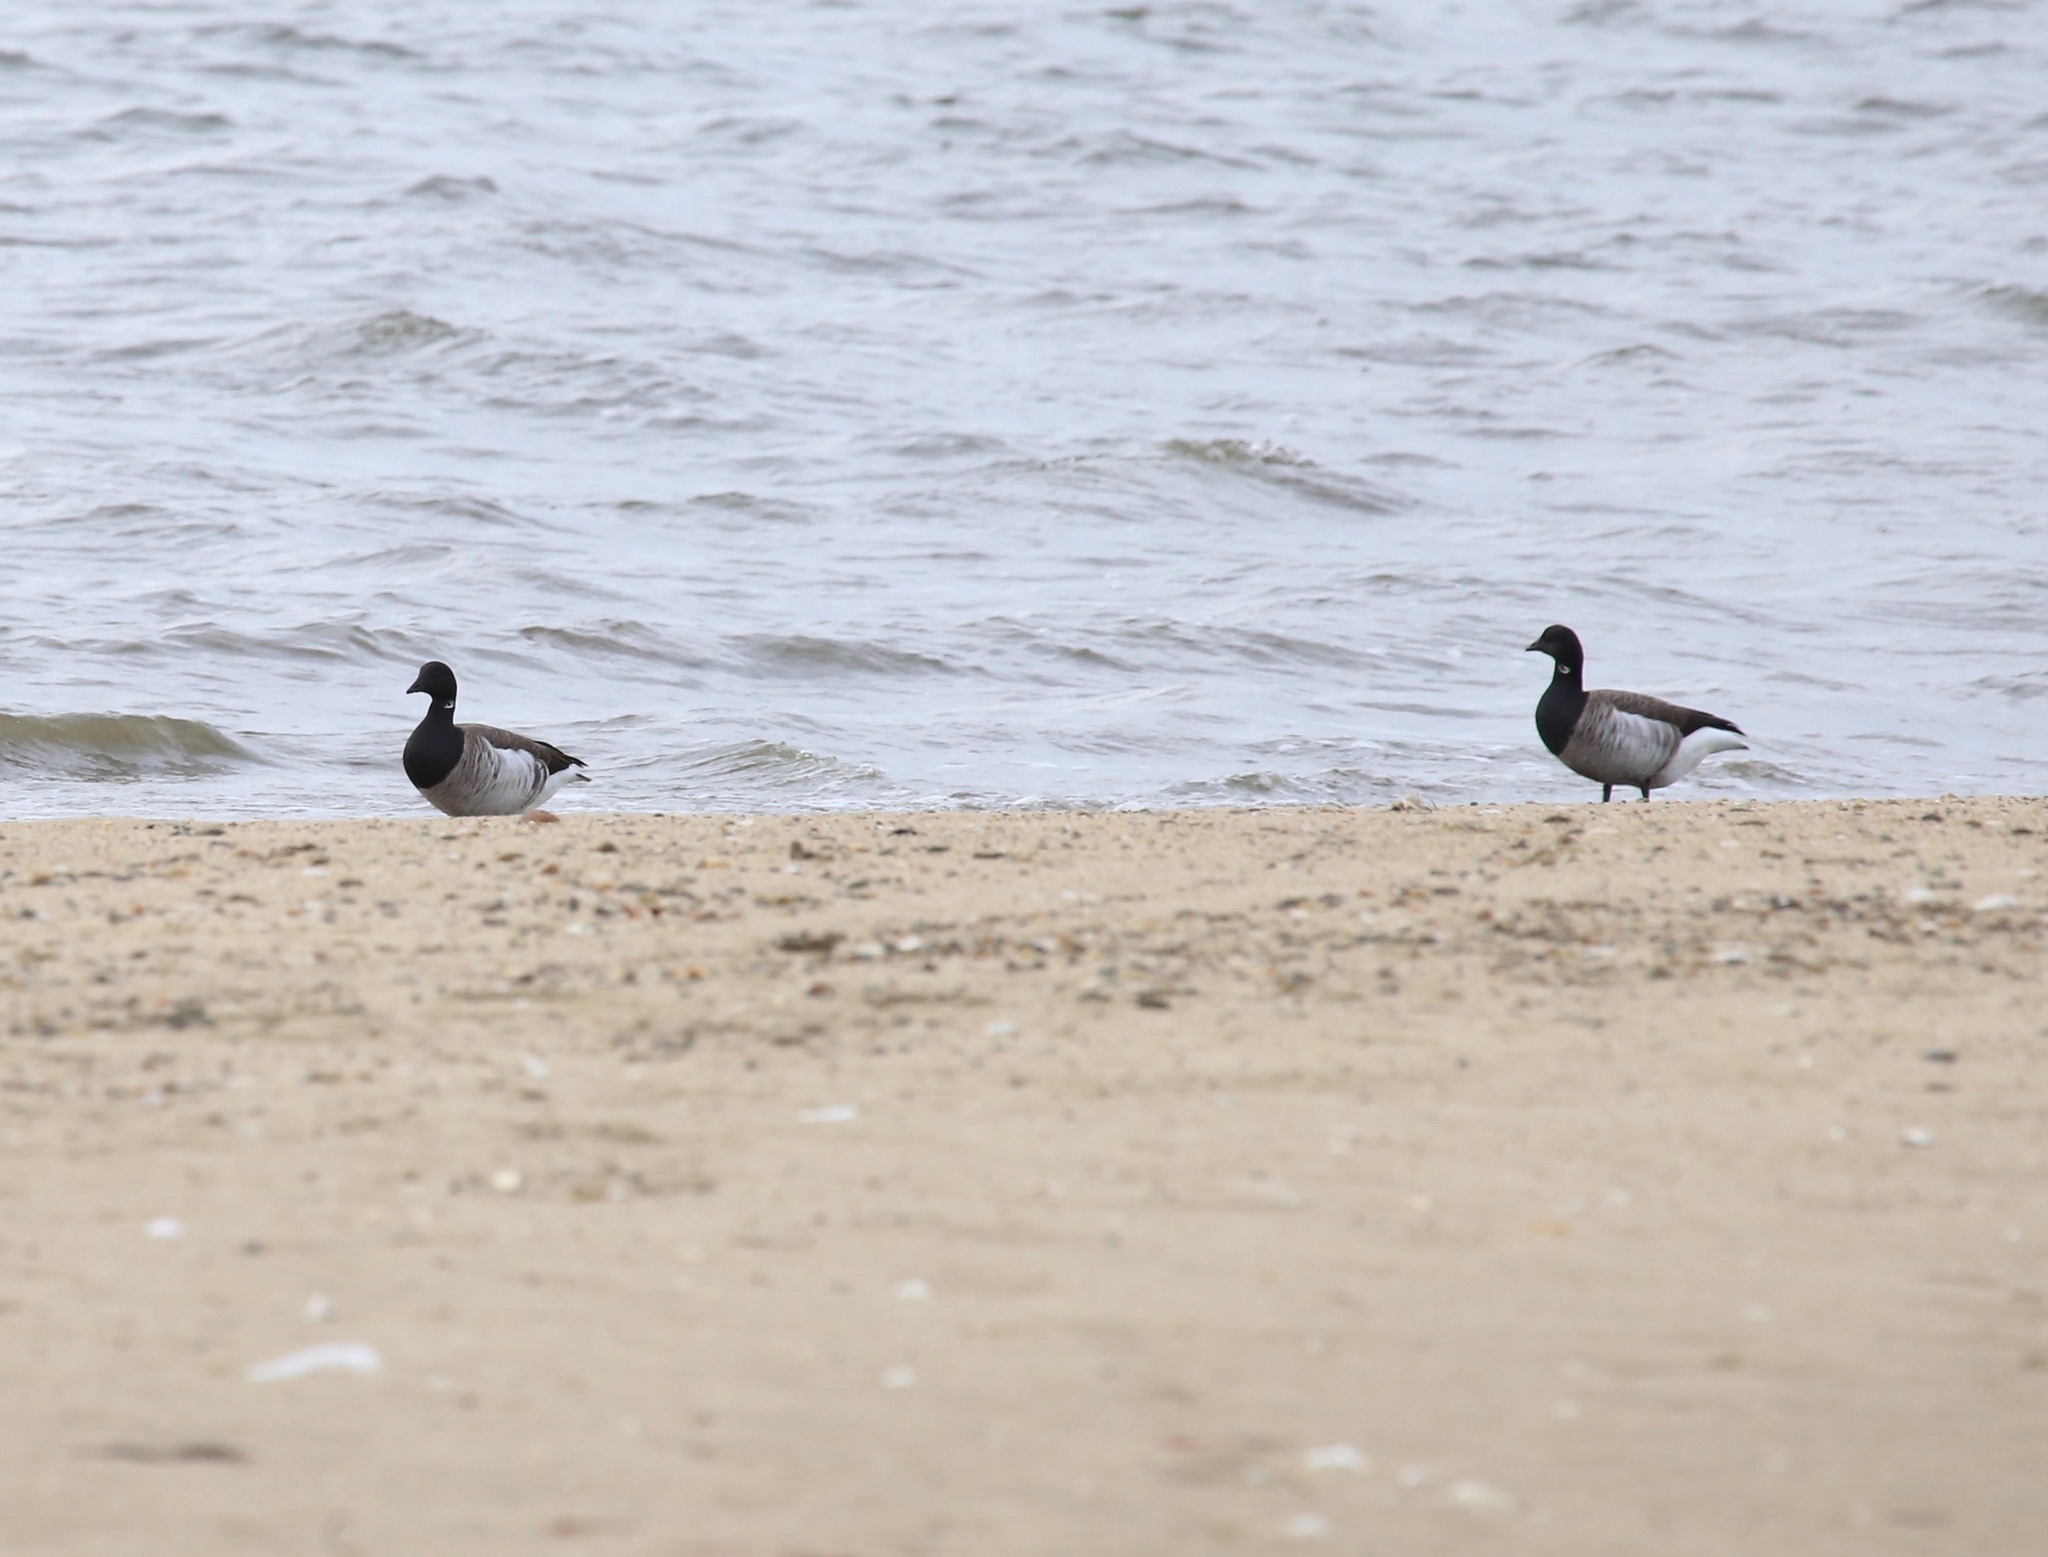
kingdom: Animalia
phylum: Chordata
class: Aves
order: Anseriformes
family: Anatidae
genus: Branta
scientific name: Branta bernicla
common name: Brant goose
